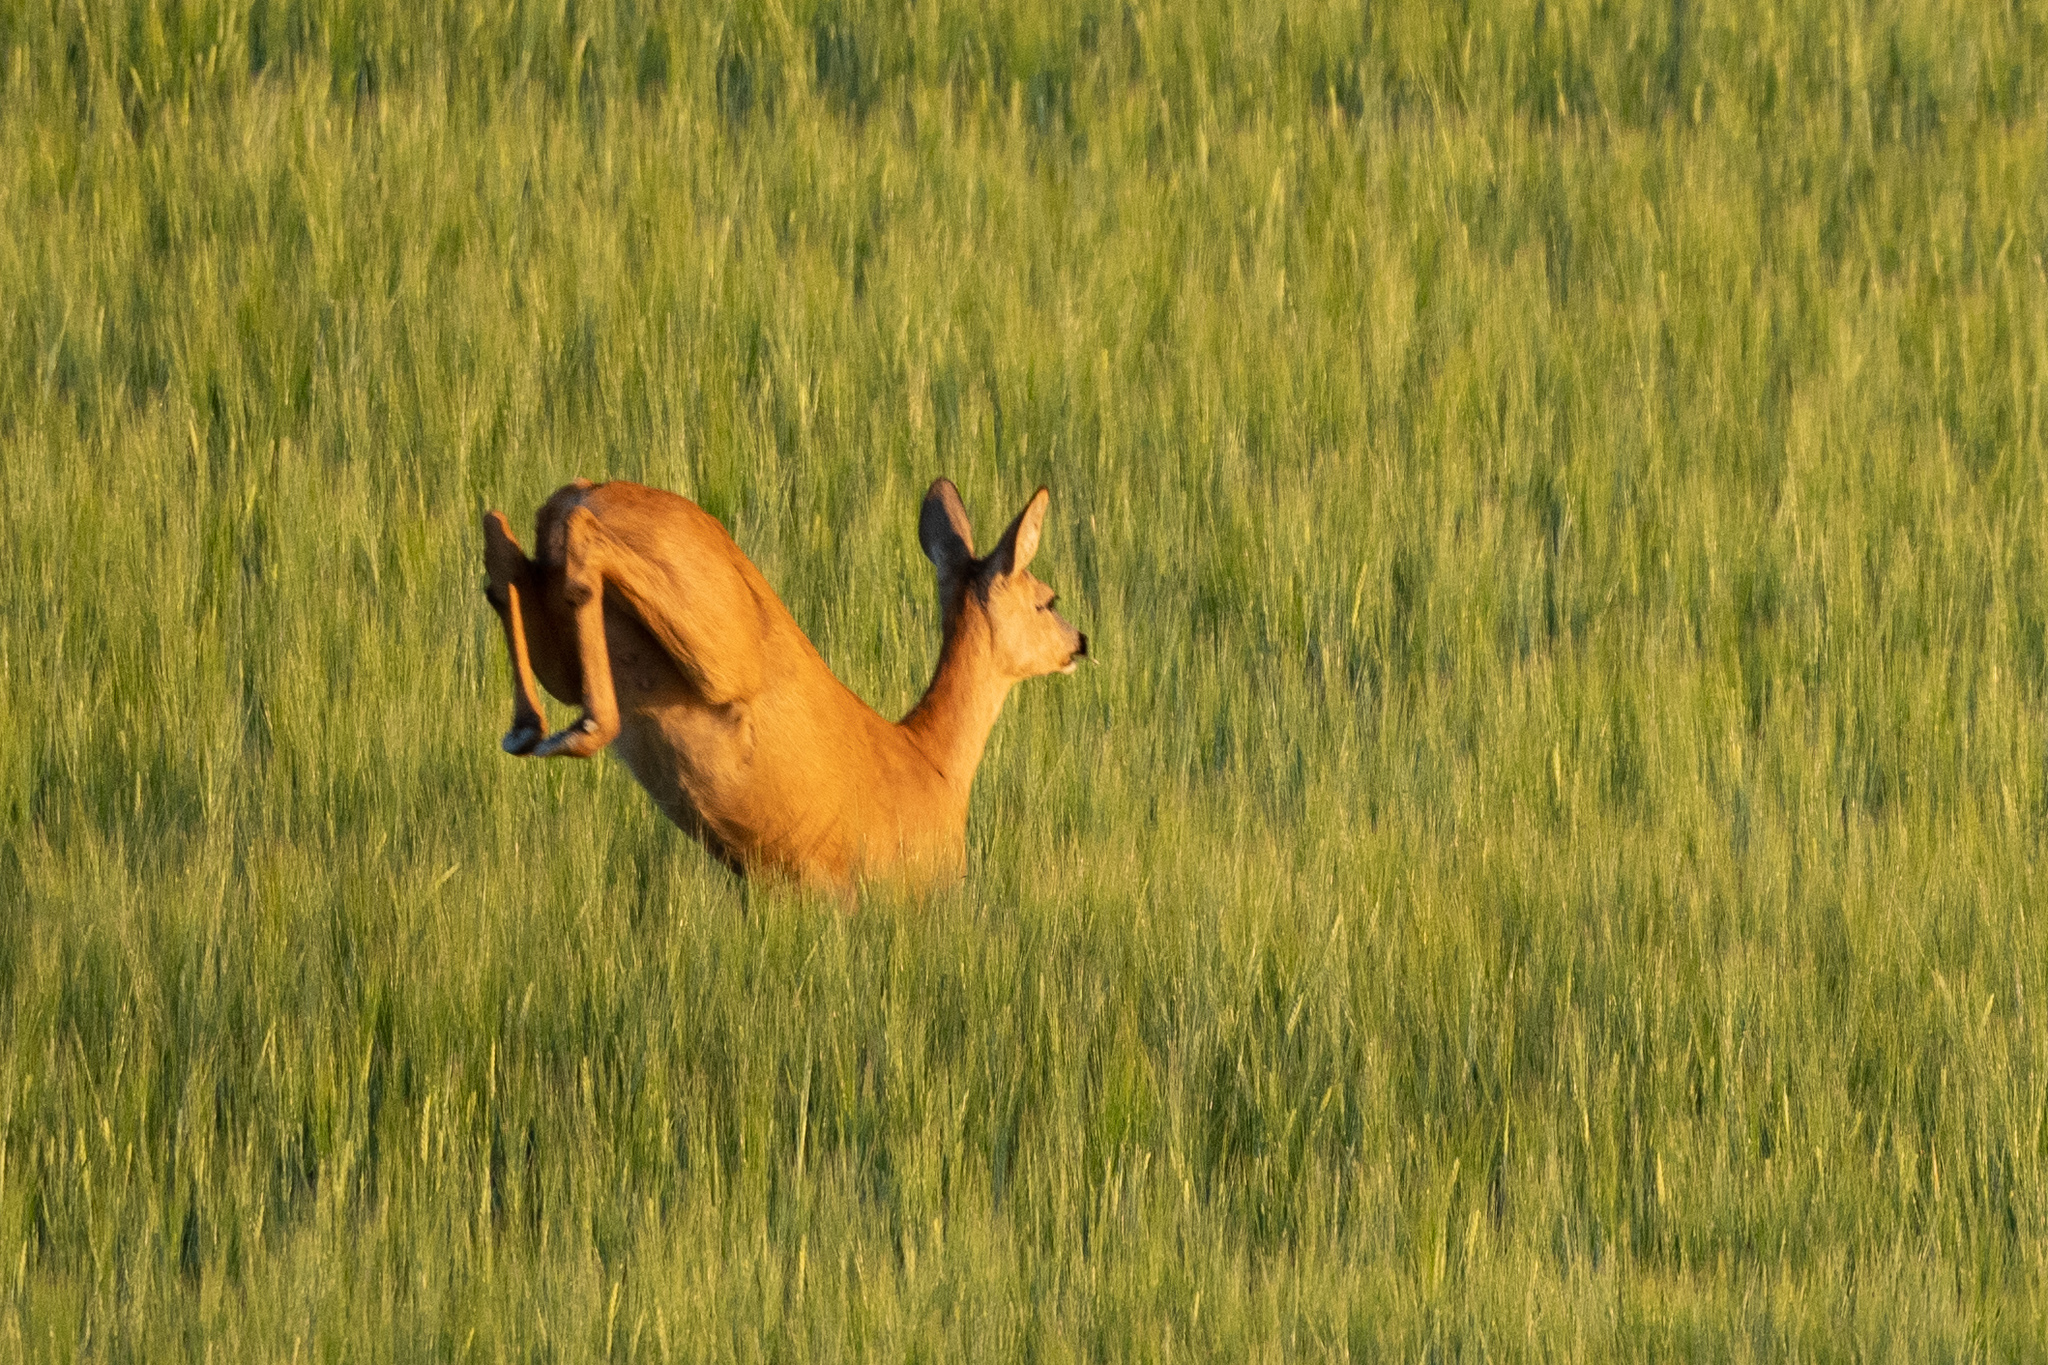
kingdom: Animalia
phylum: Chordata
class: Mammalia
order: Artiodactyla
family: Cervidae
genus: Capreolus
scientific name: Capreolus capreolus
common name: Western roe deer
